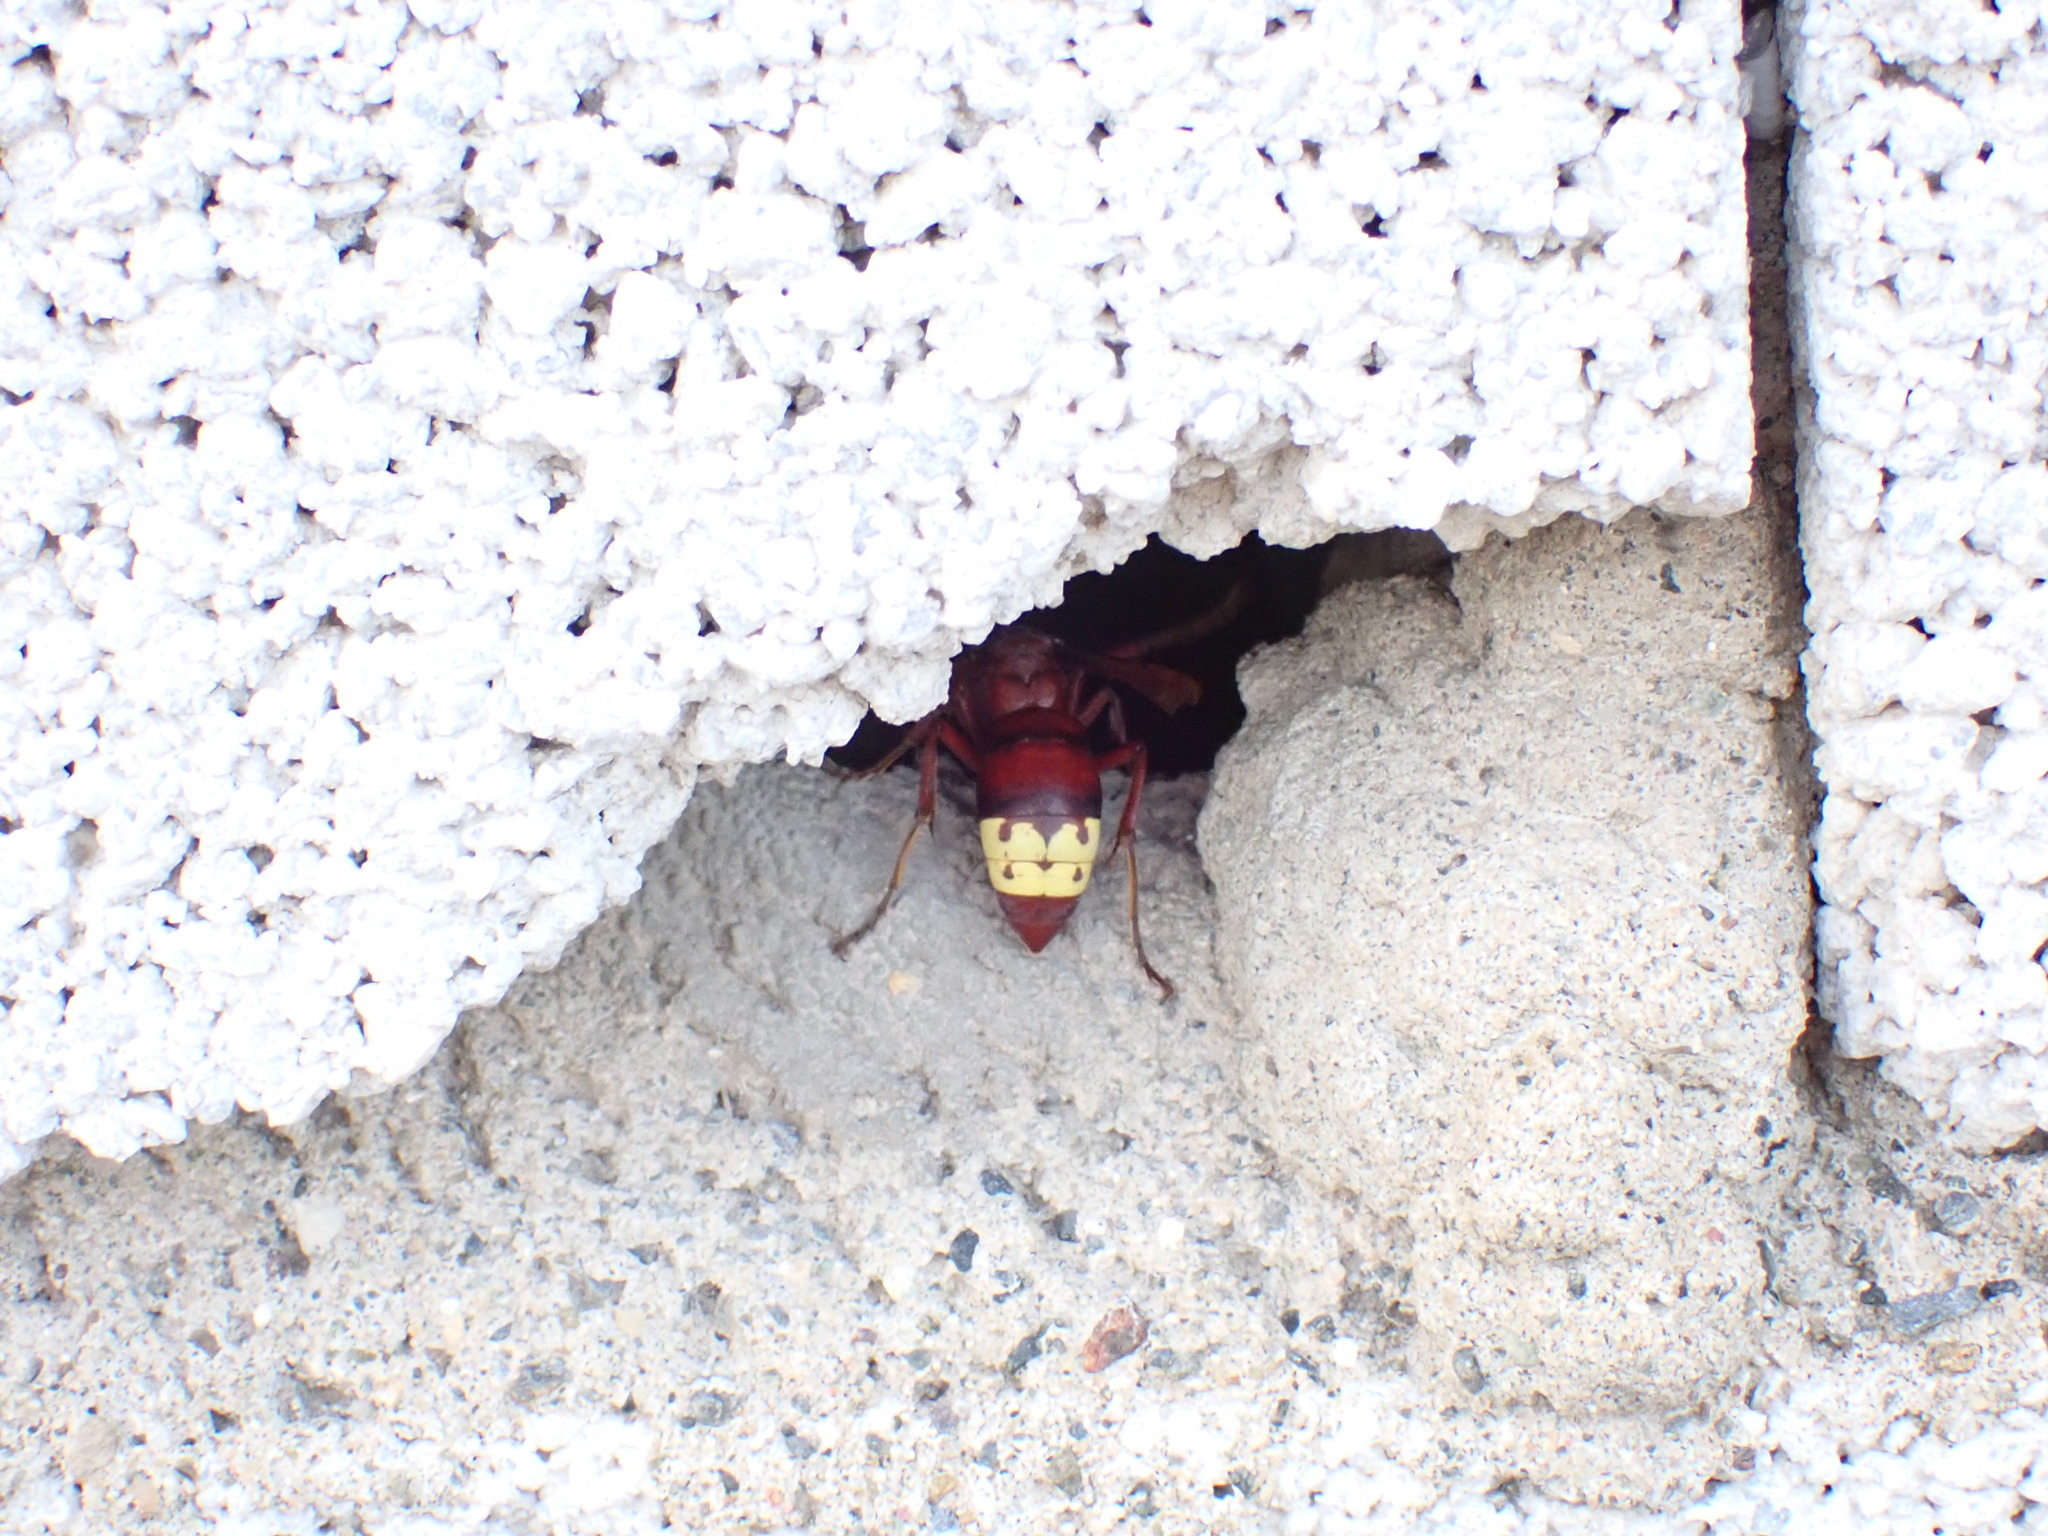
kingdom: Animalia
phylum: Arthropoda
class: Insecta
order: Hymenoptera
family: Vespidae
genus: Vespa
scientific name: Vespa orientalis
